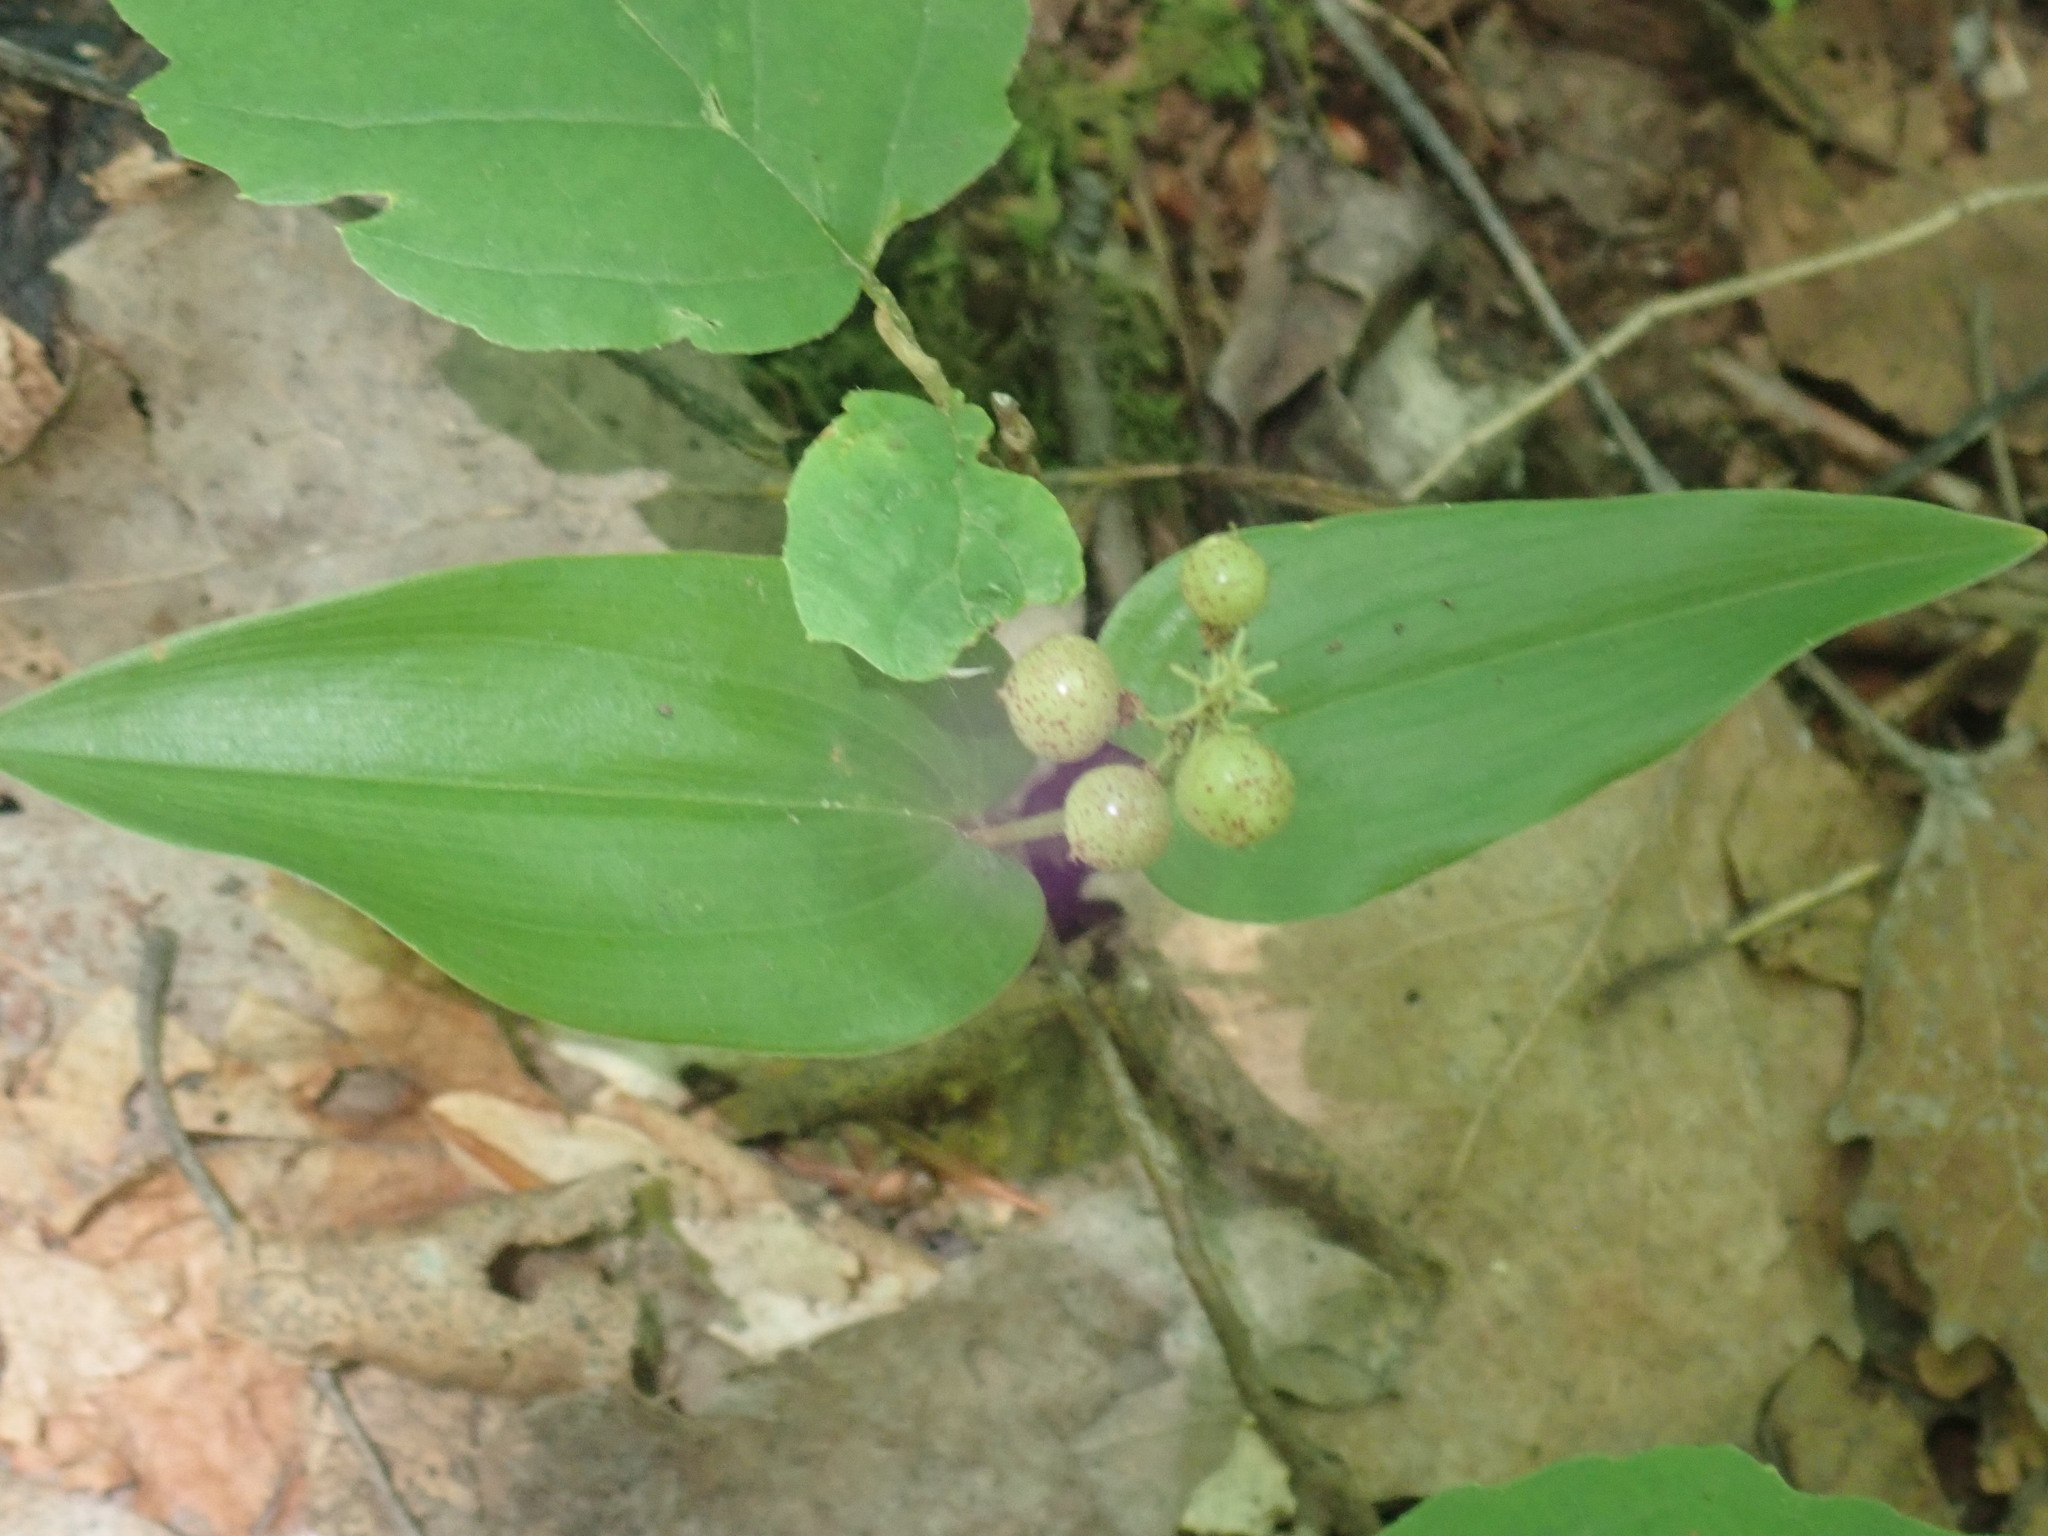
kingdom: Plantae
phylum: Tracheophyta
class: Liliopsida
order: Asparagales
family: Asparagaceae
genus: Maianthemum
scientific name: Maianthemum canadense
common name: False lily-of-the-valley
